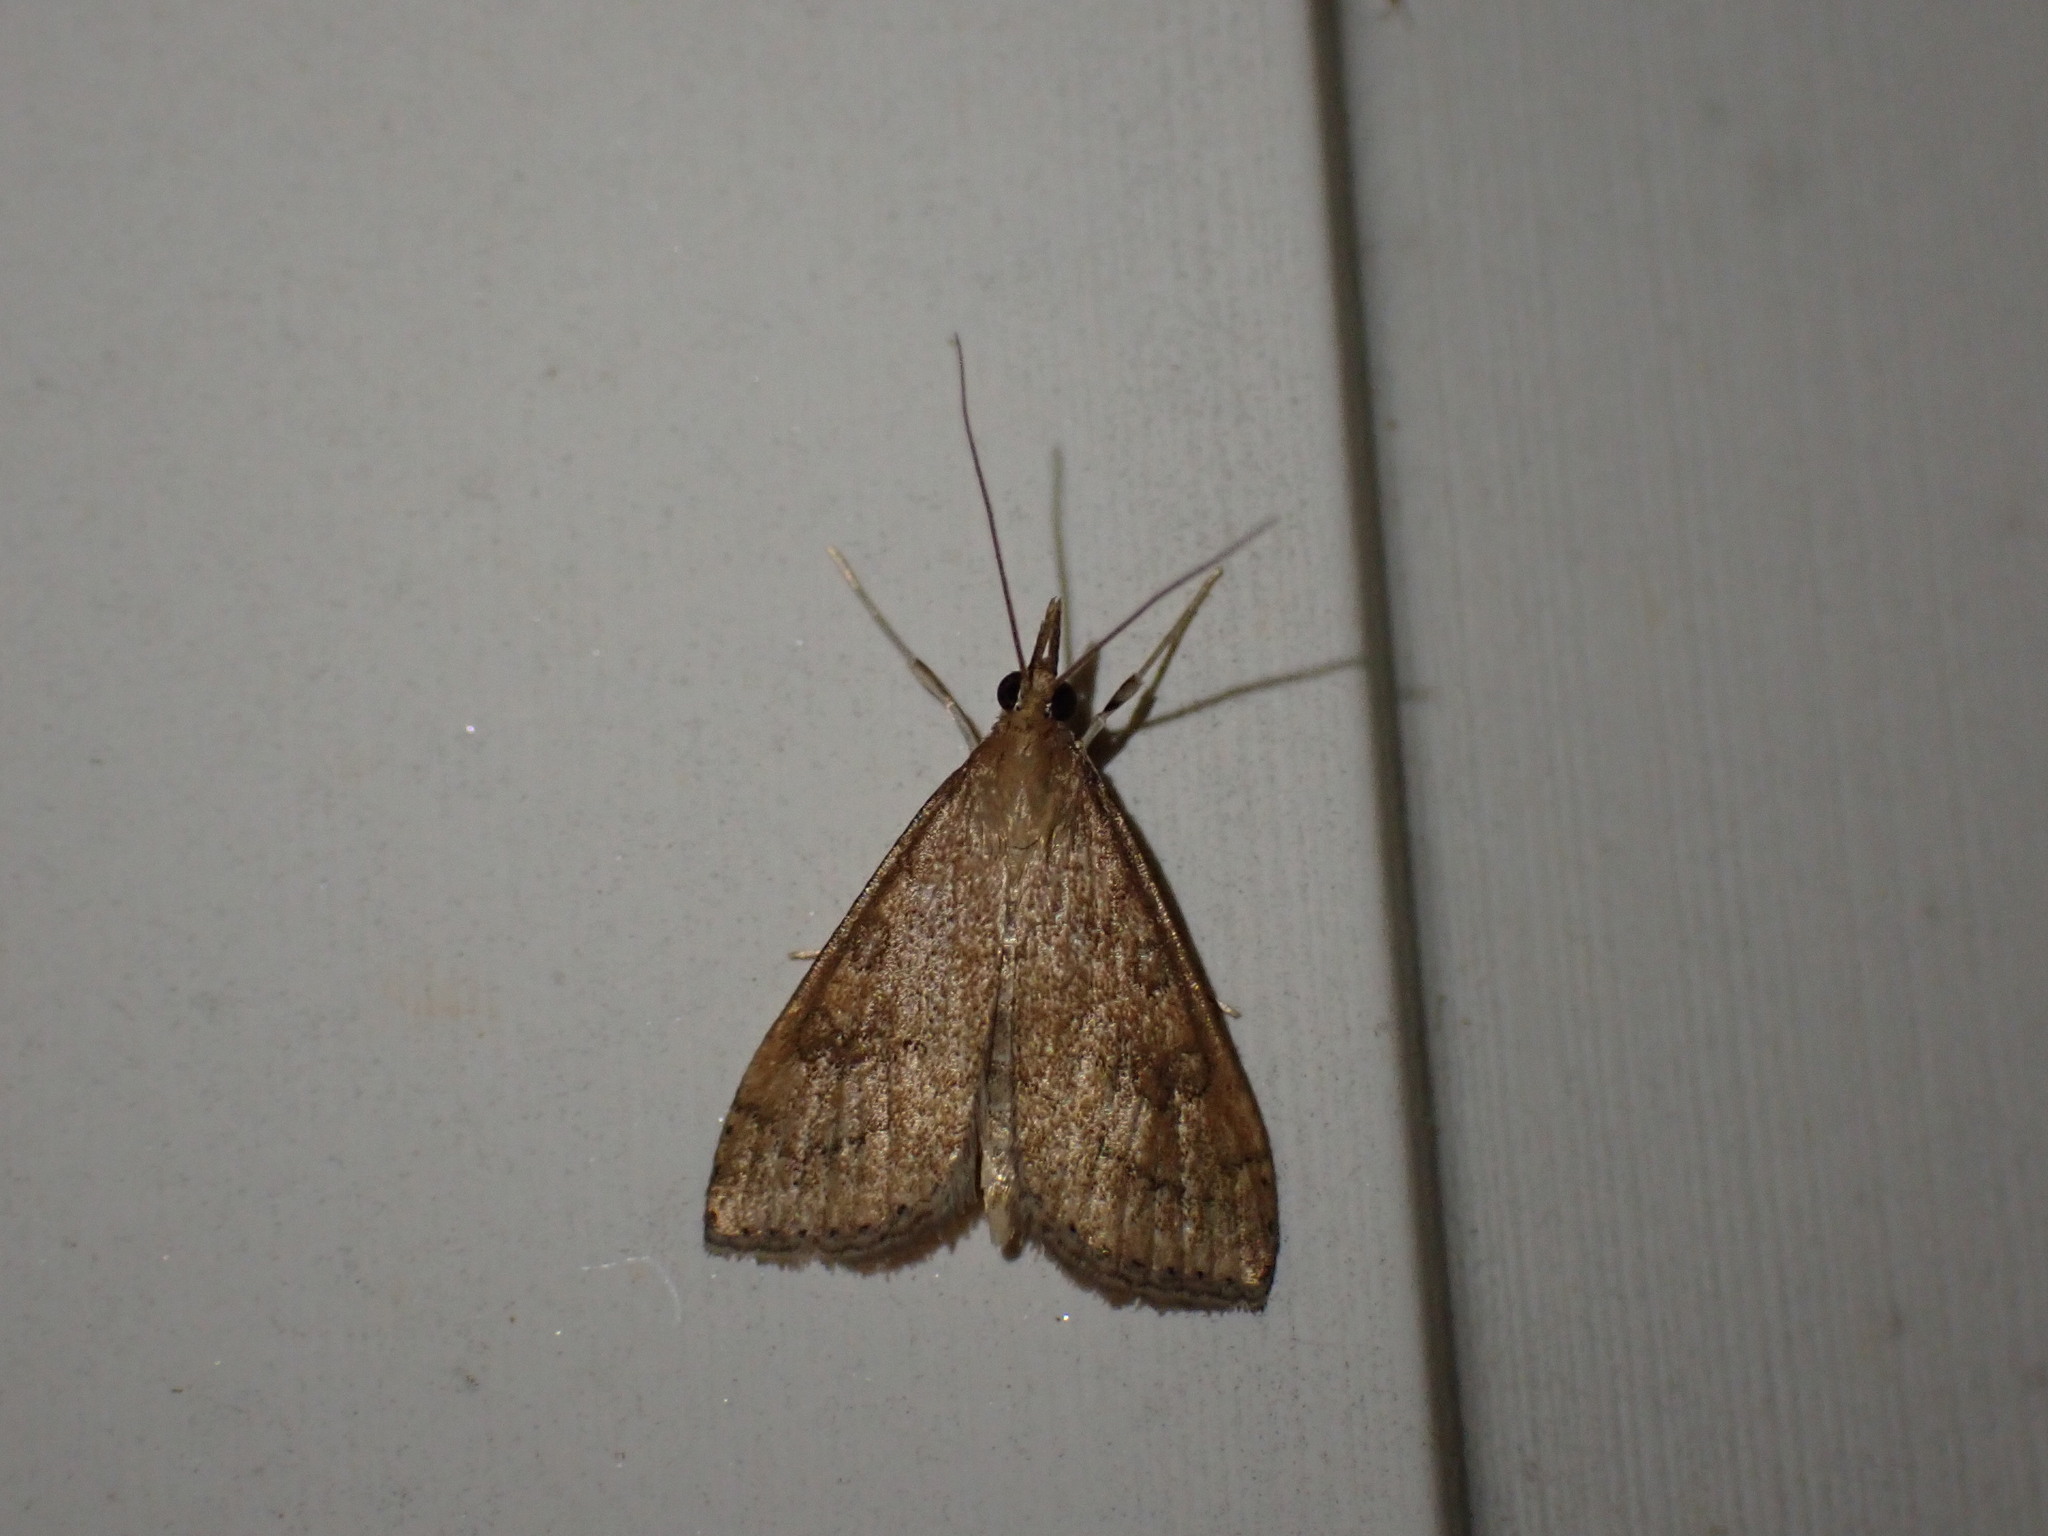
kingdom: Animalia
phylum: Arthropoda
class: Insecta
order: Lepidoptera
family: Crambidae
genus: Udea
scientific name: Udea rubigalis
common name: Celery leaftier moth
